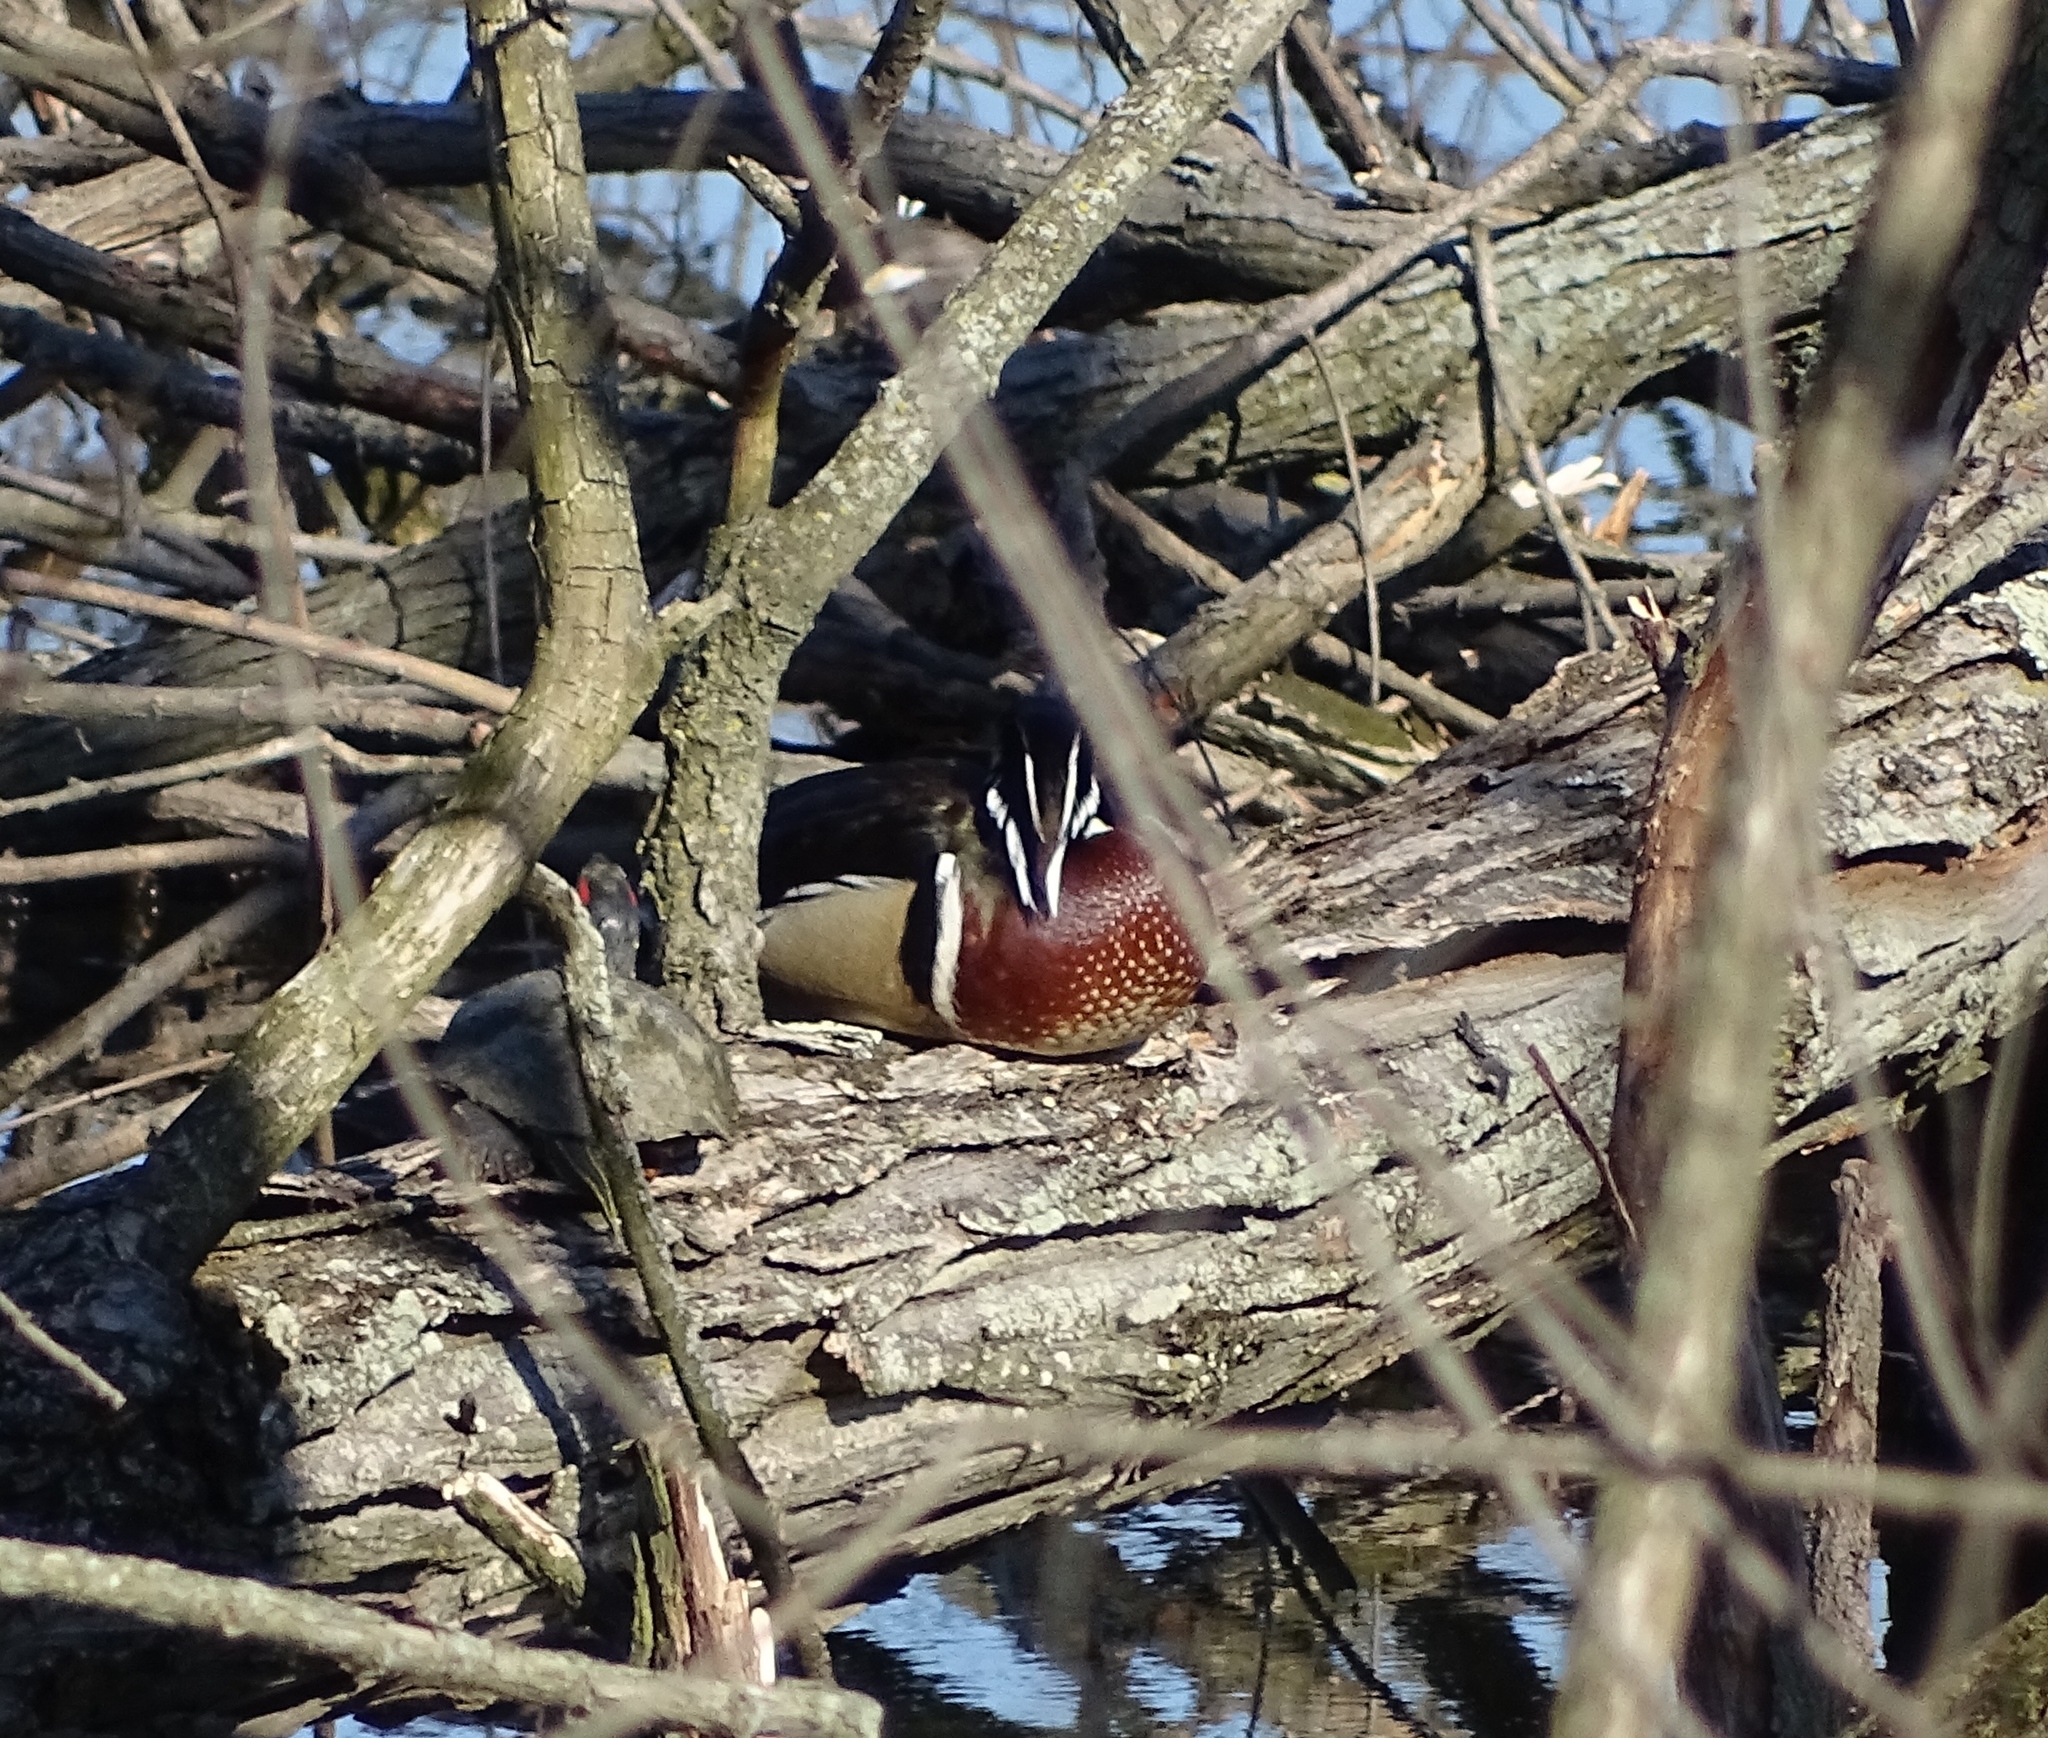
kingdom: Animalia
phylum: Chordata
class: Aves
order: Anseriformes
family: Anatidae
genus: Aix
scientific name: Aix sponsa
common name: Wood duck
